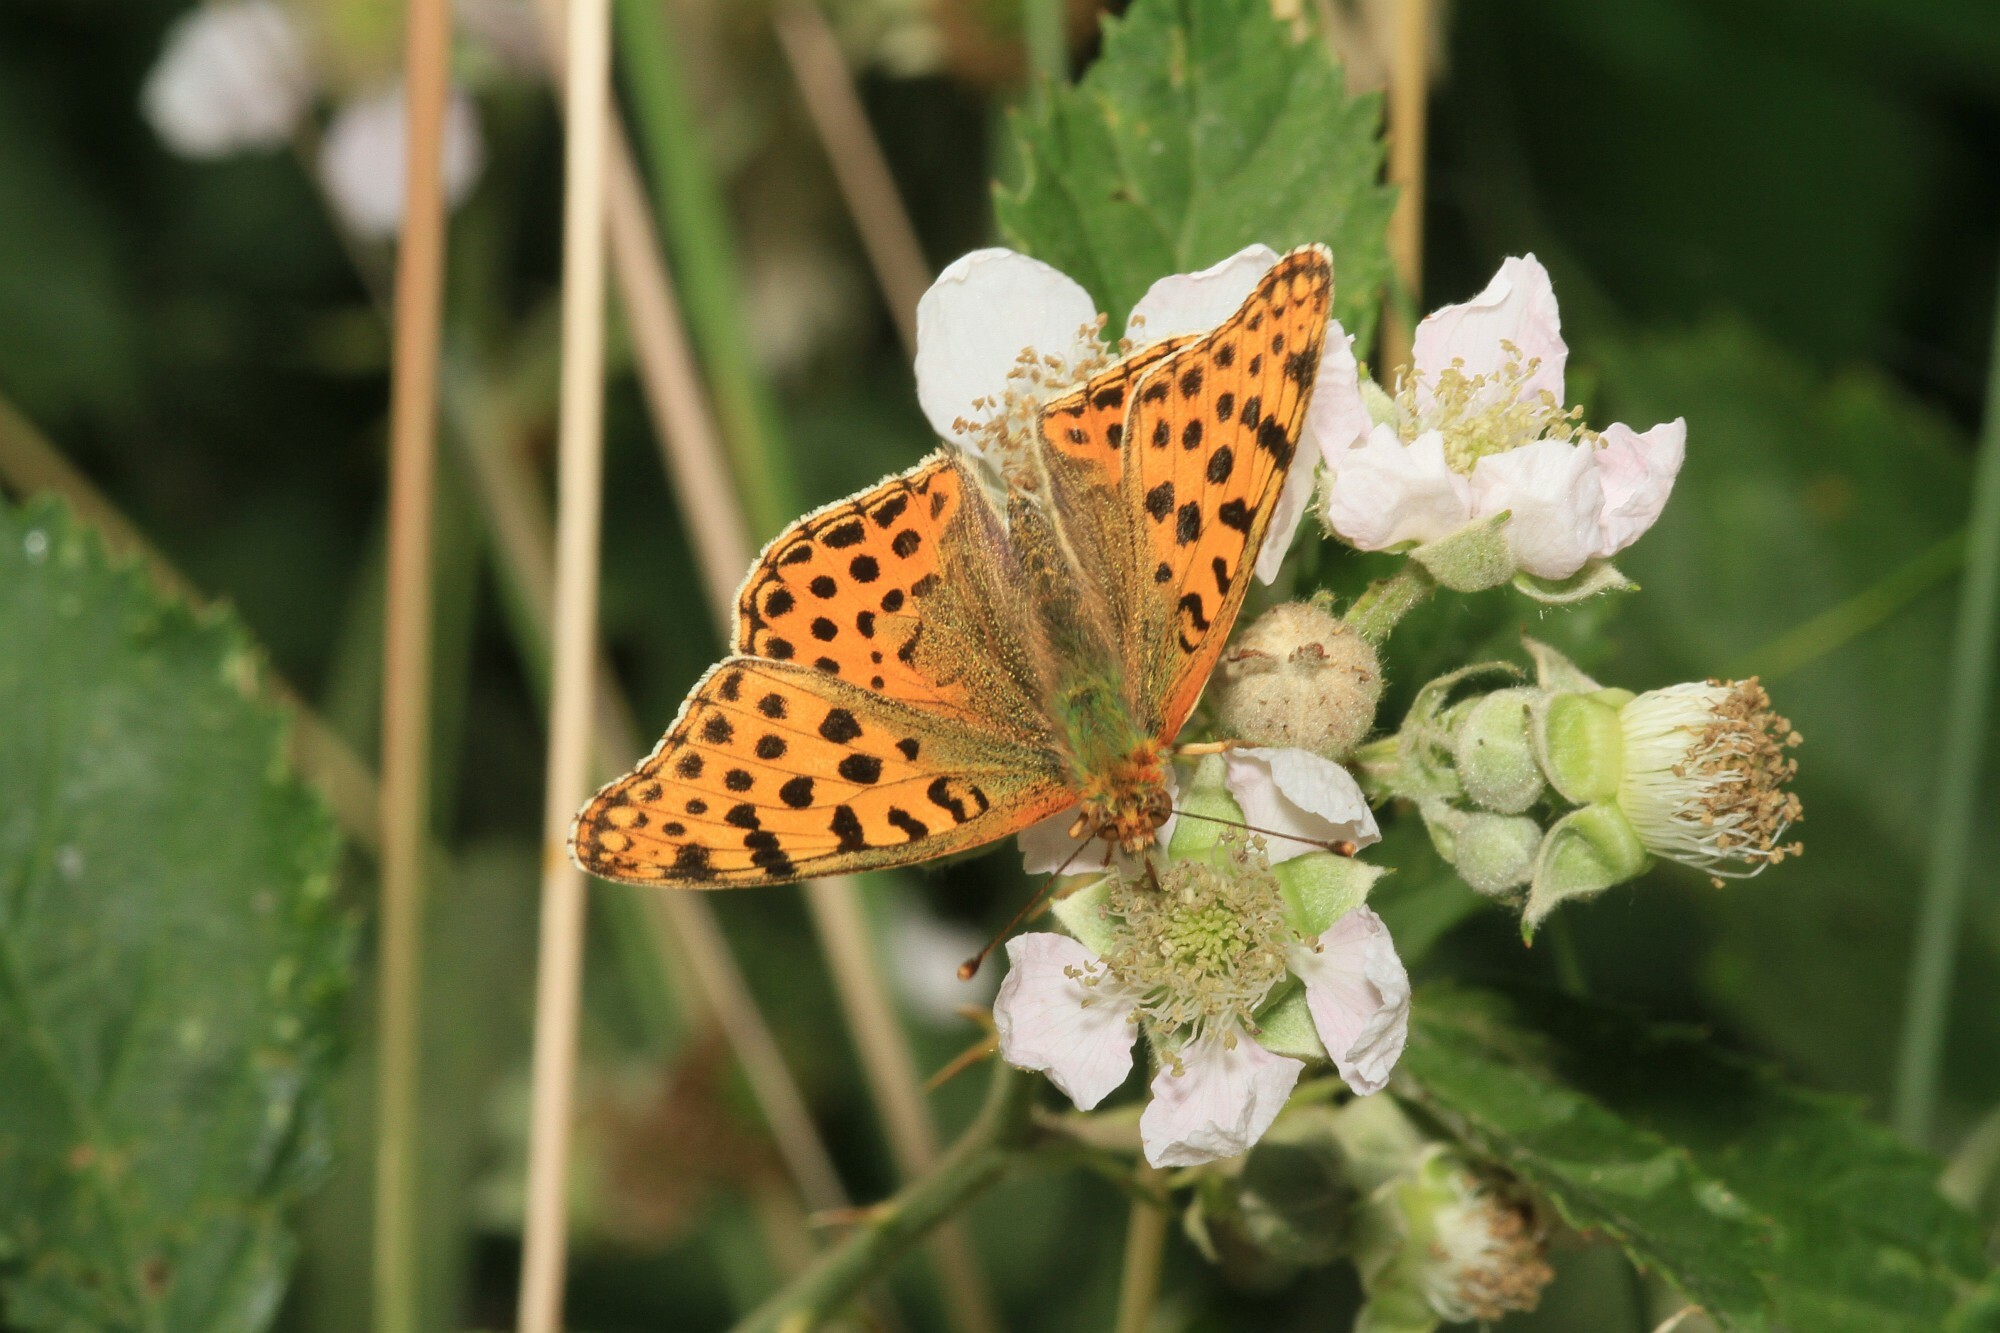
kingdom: Animalia
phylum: Arthropoda
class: Insecta
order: Lepidoptera
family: Nymphalidae
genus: Issoria
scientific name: Issoria lathonia
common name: Queen of spain fritillary
